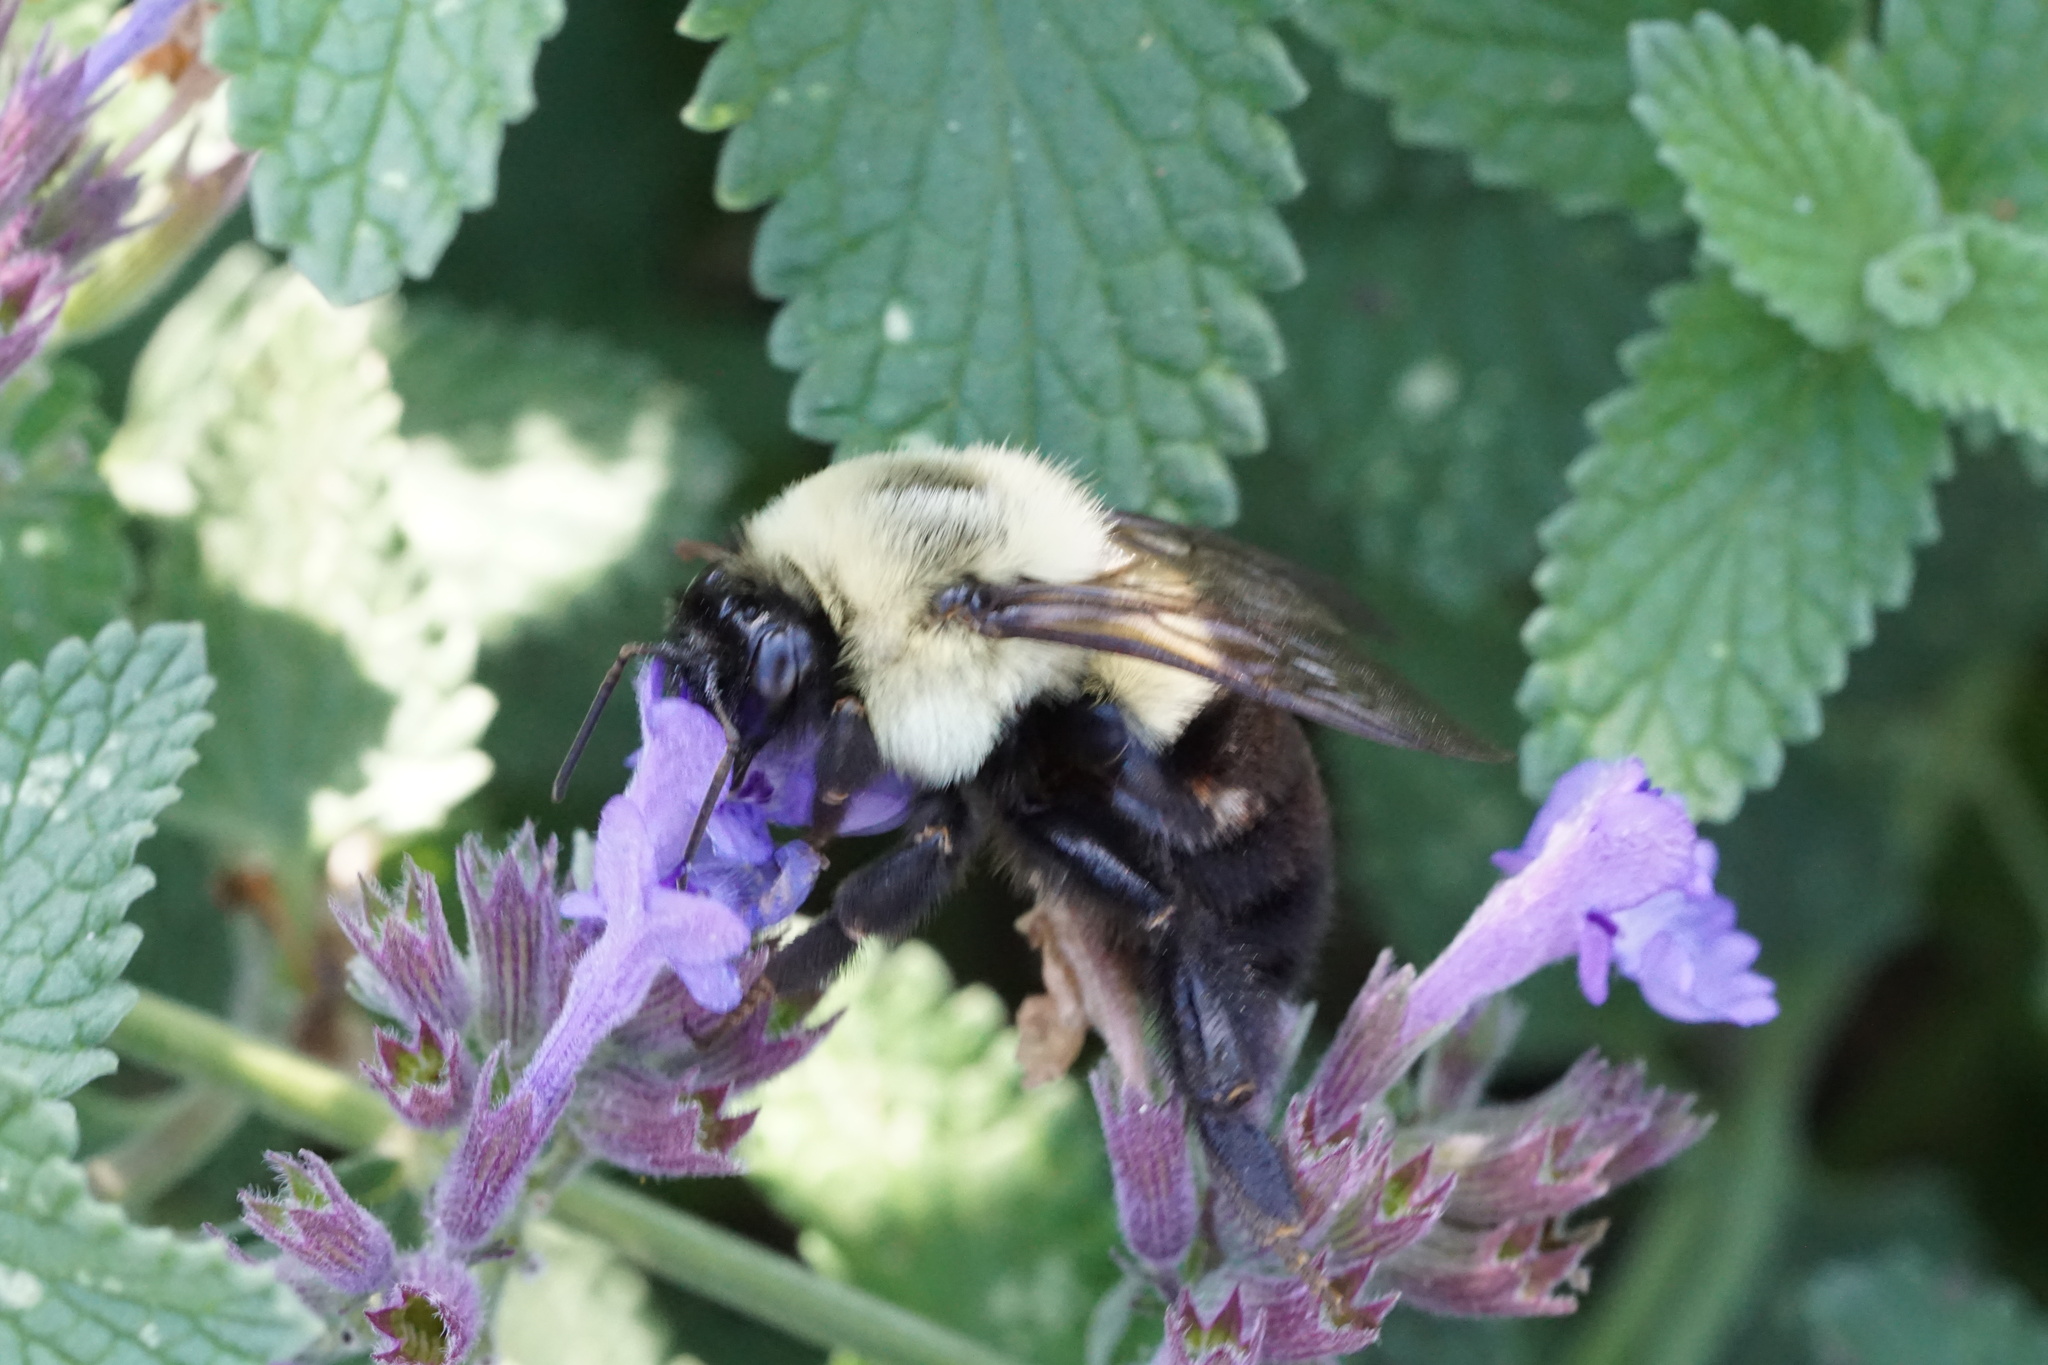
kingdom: Animalia
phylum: Arthropoda
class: Insecta
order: Hymenoptera
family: Apidae
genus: Bombus
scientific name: Bombus impatiens
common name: Common eastern bumble bee
